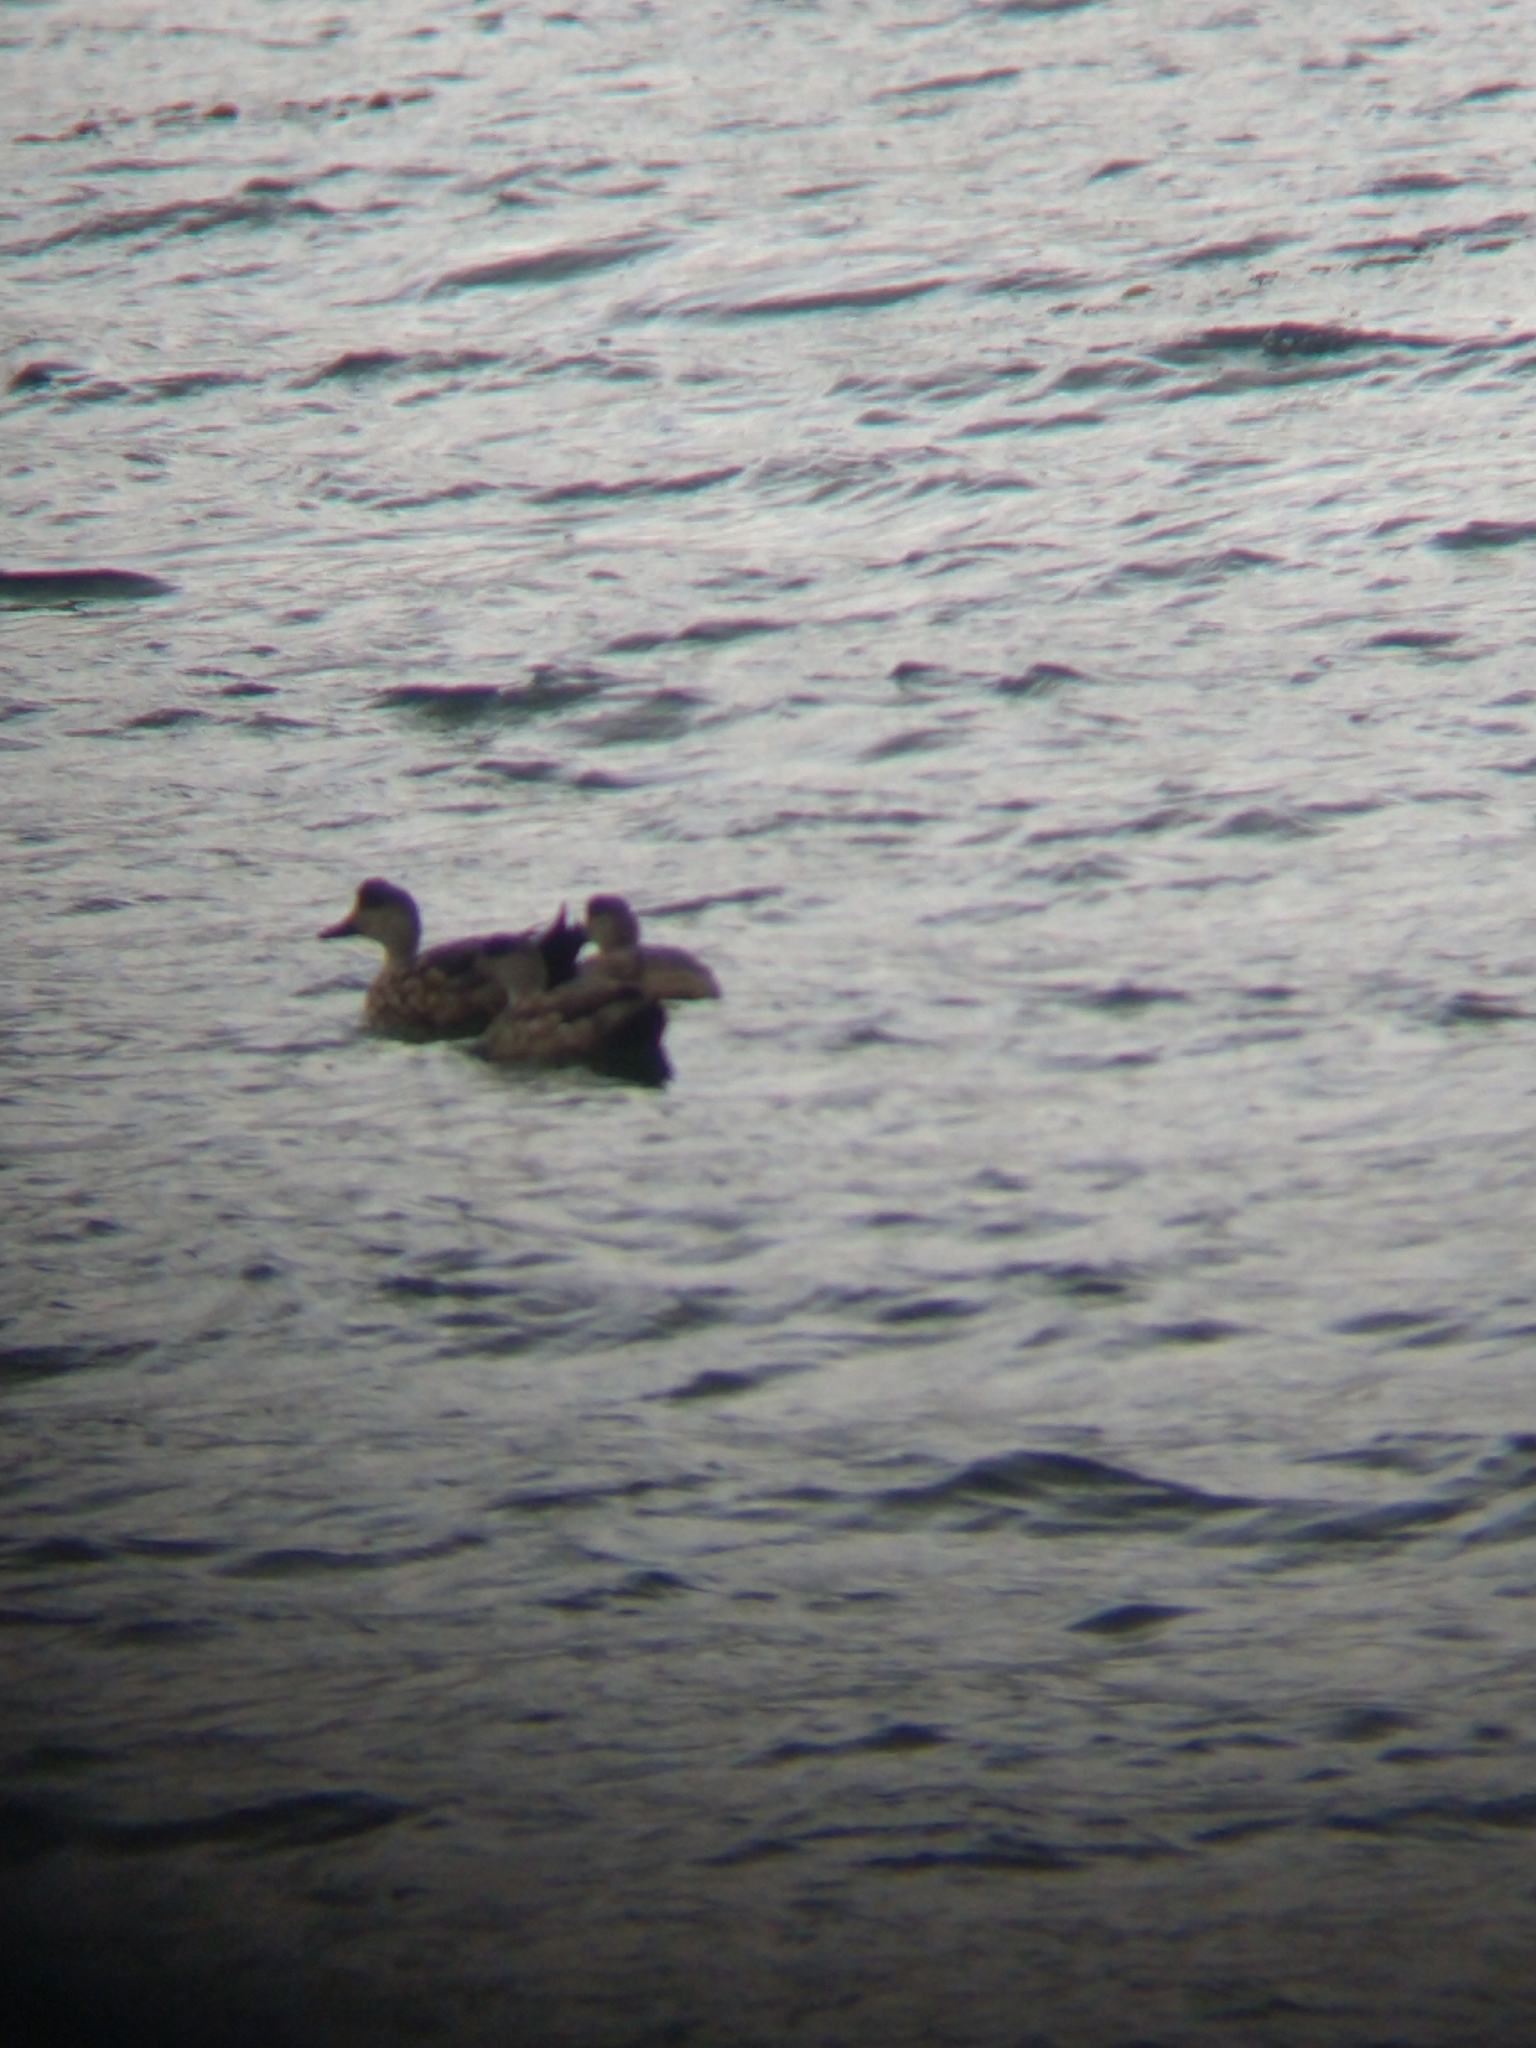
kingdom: Animalia
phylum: Chordata
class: Aves
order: Anseriformes
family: Anatidae
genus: Lophonetta
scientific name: Lophonetta specularioides
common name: Crested duck
